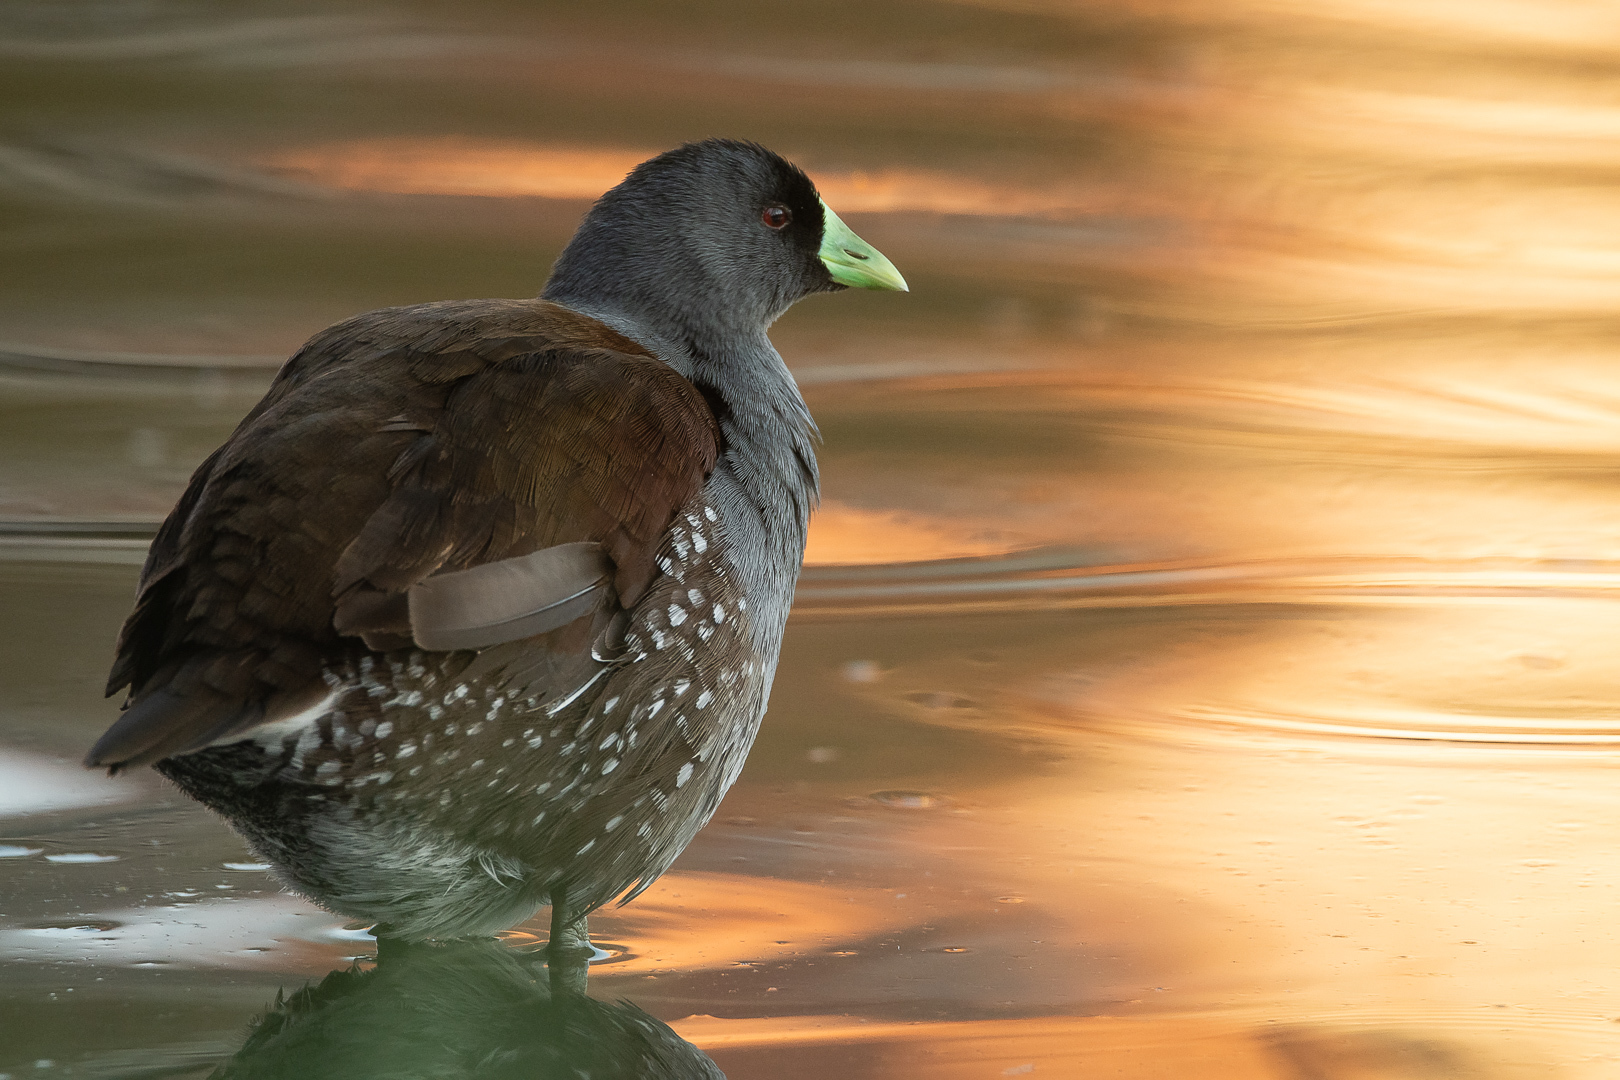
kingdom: Animalia
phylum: Chordata
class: Aves
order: Gruiformes
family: Rallidae
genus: Gallinula
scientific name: Gallinula melanops
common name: Spot-flanked gallinule
